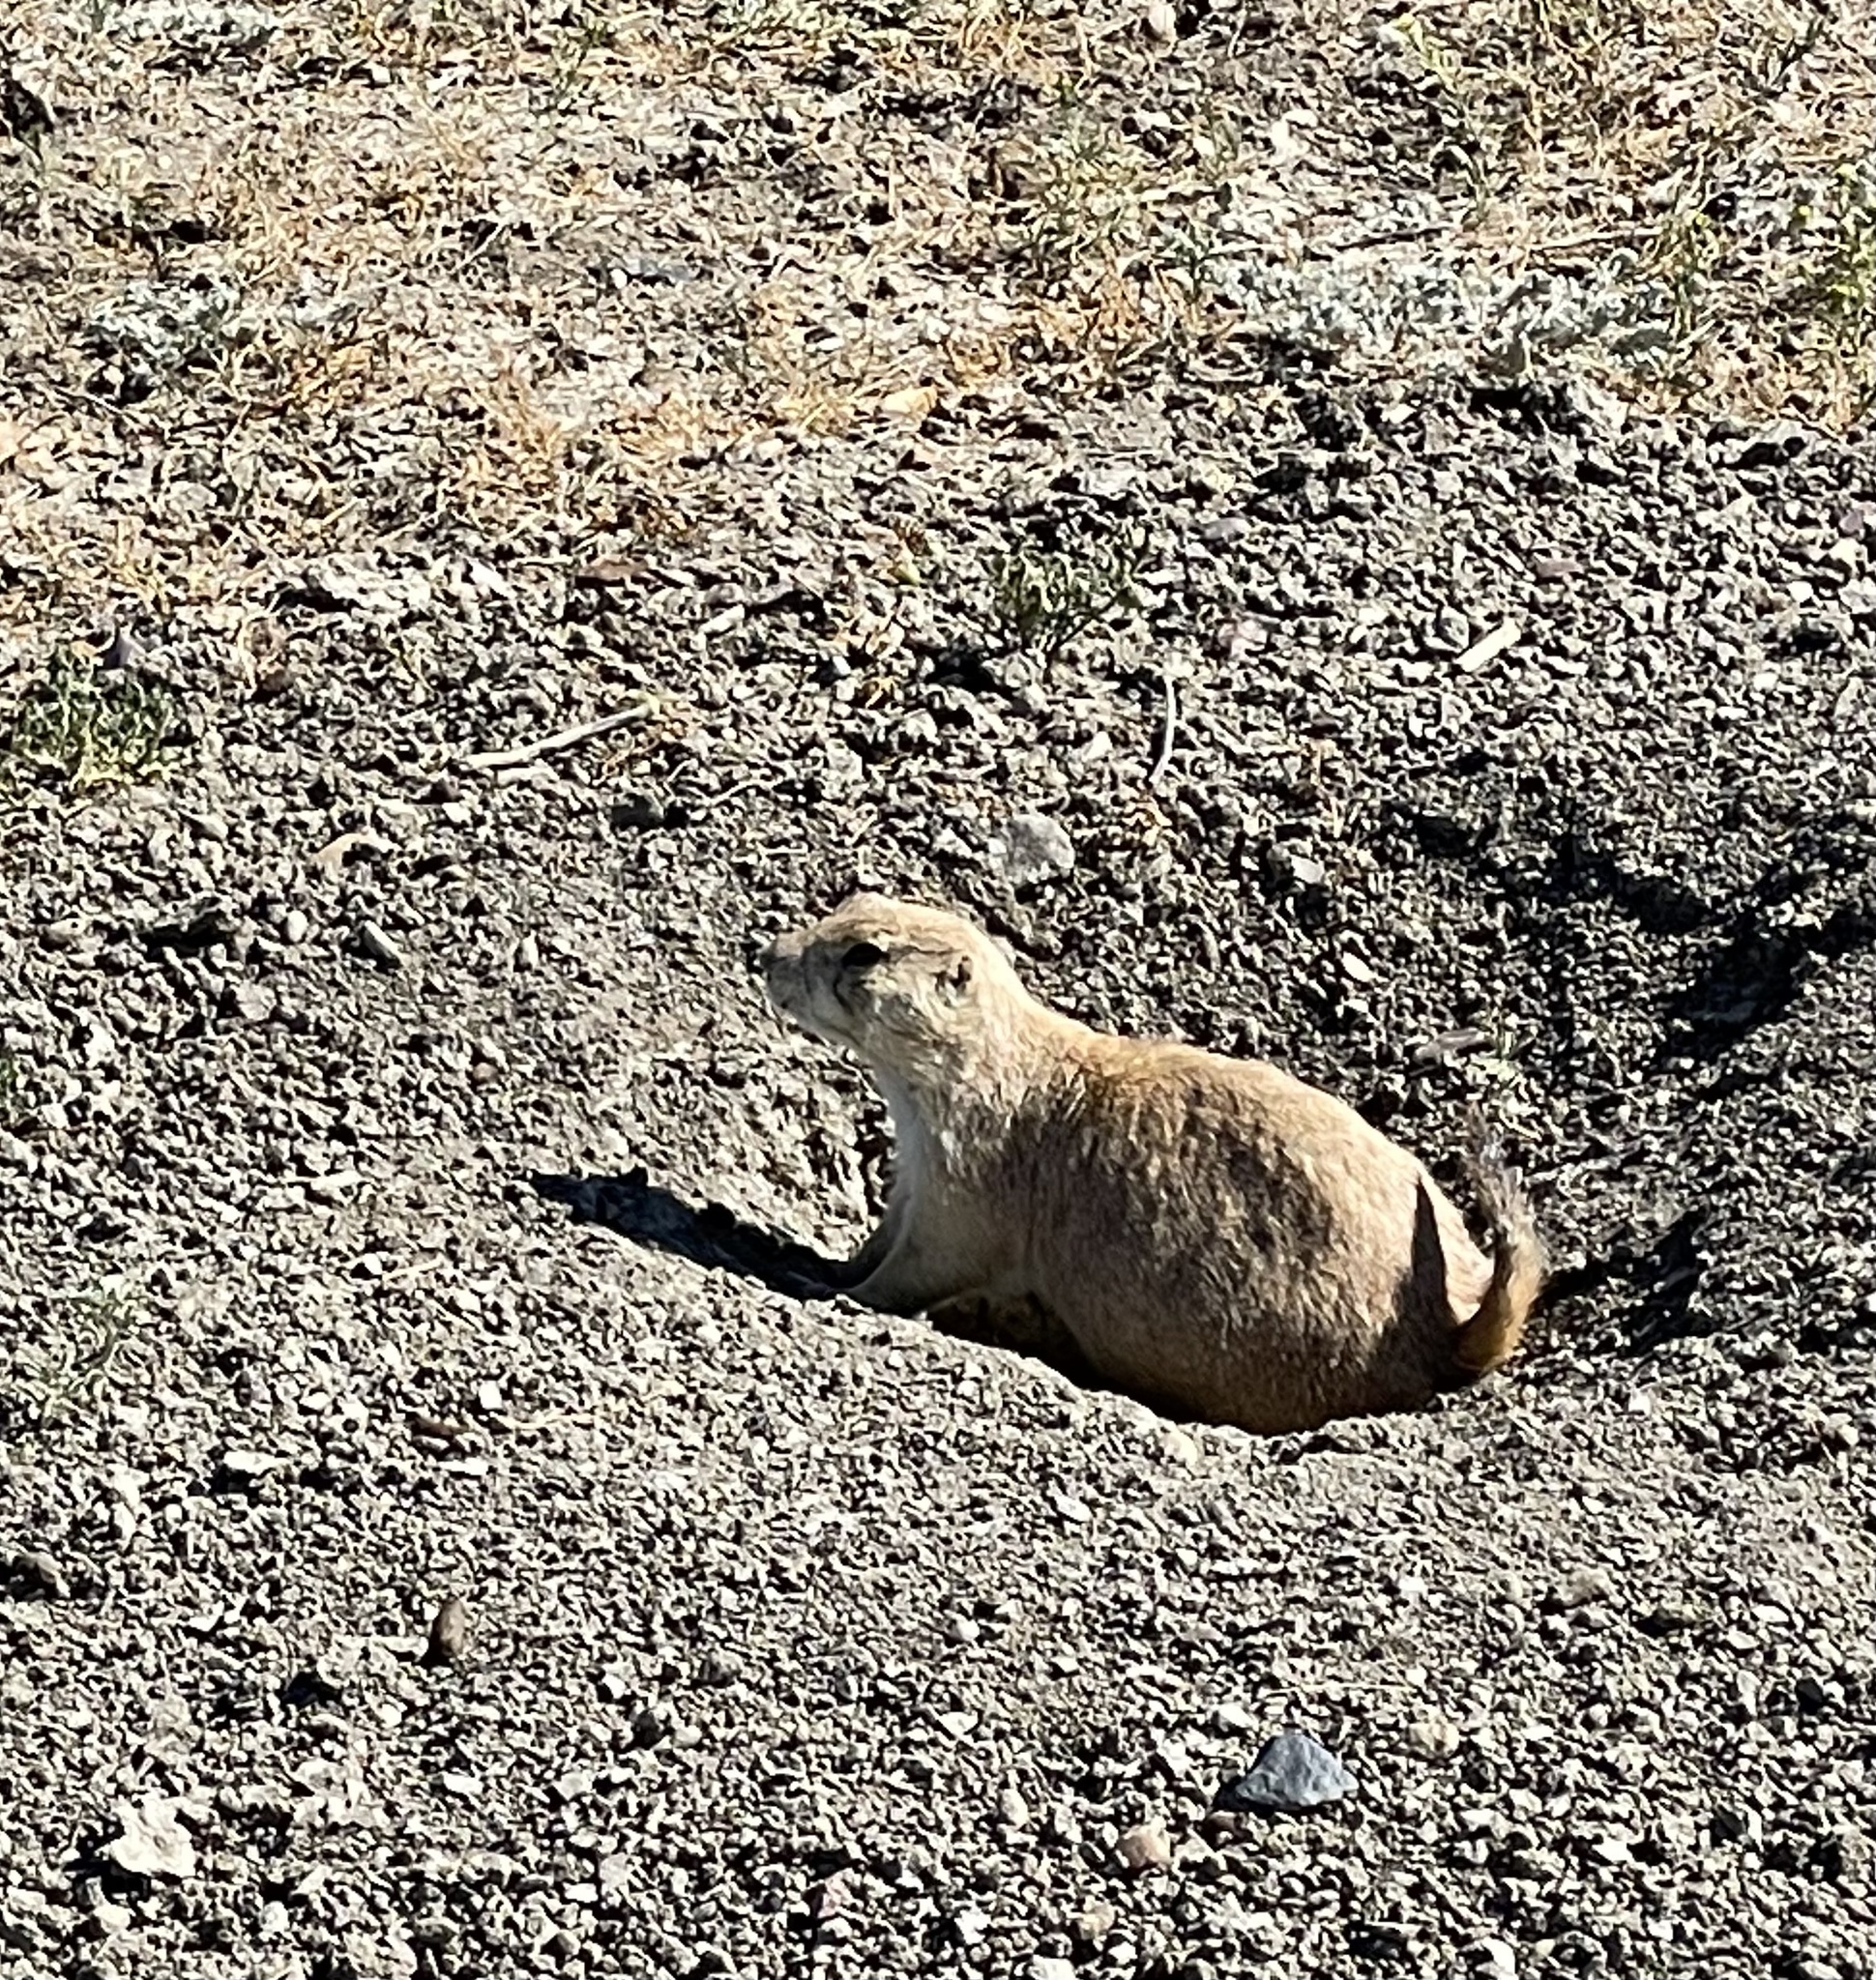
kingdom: Animalia
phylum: Chordata
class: Mammalia
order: Rodentia
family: Sciuridae
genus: Cynomys
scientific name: Cynomys ludovicianus
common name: Black-tailed prairie dog
